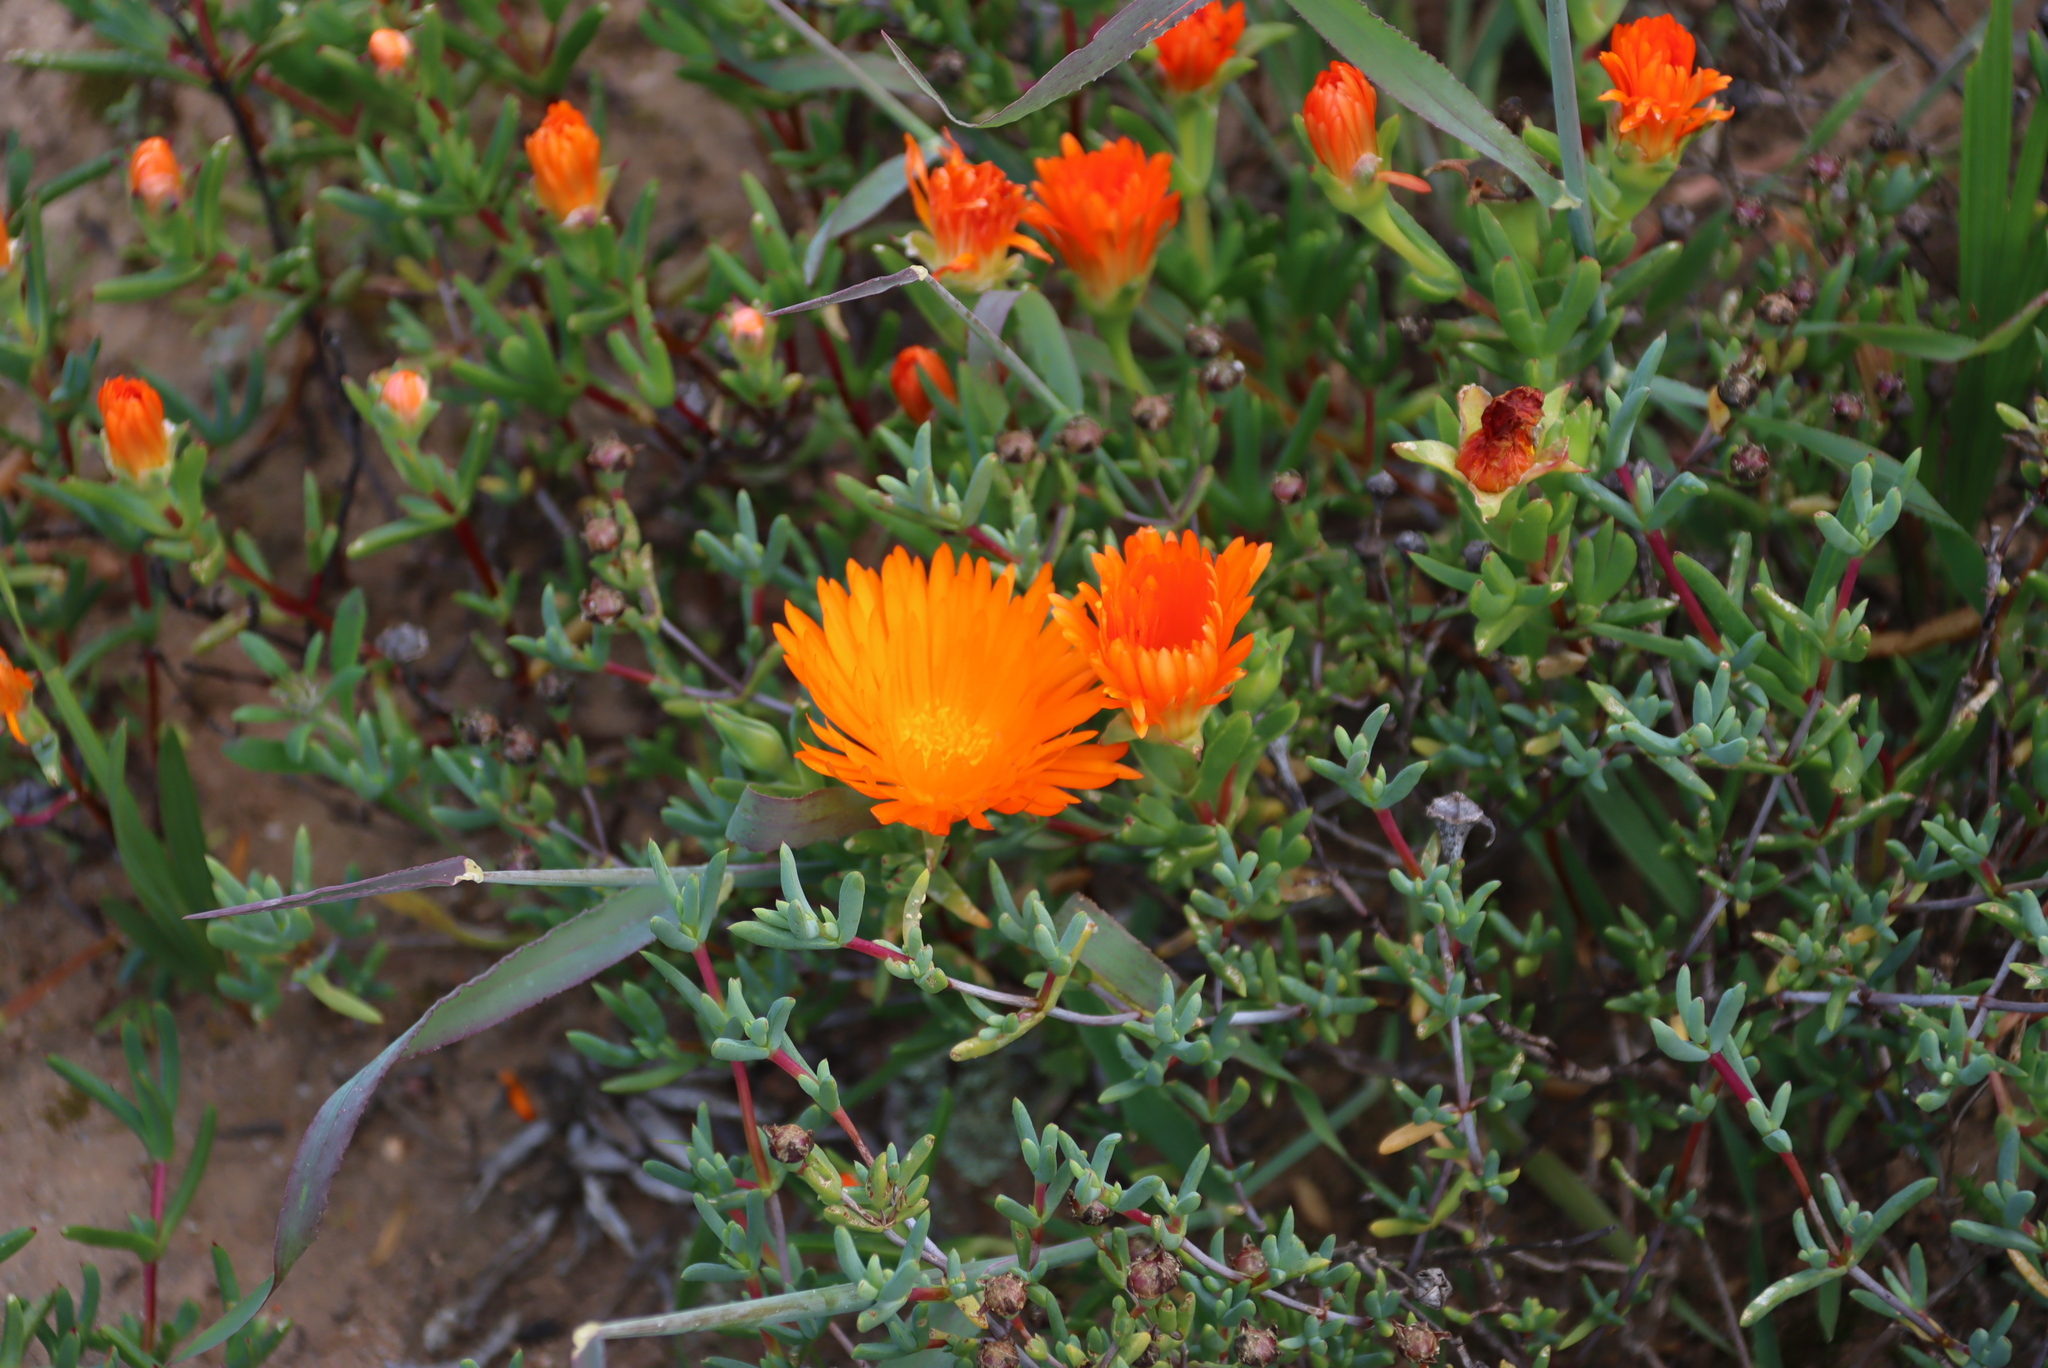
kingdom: Plantae
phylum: Tracheophyta
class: Magnoliopsida
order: Caryophyllales
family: Aizoaceae
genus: Lampranthus
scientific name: Lampranthus aureus
